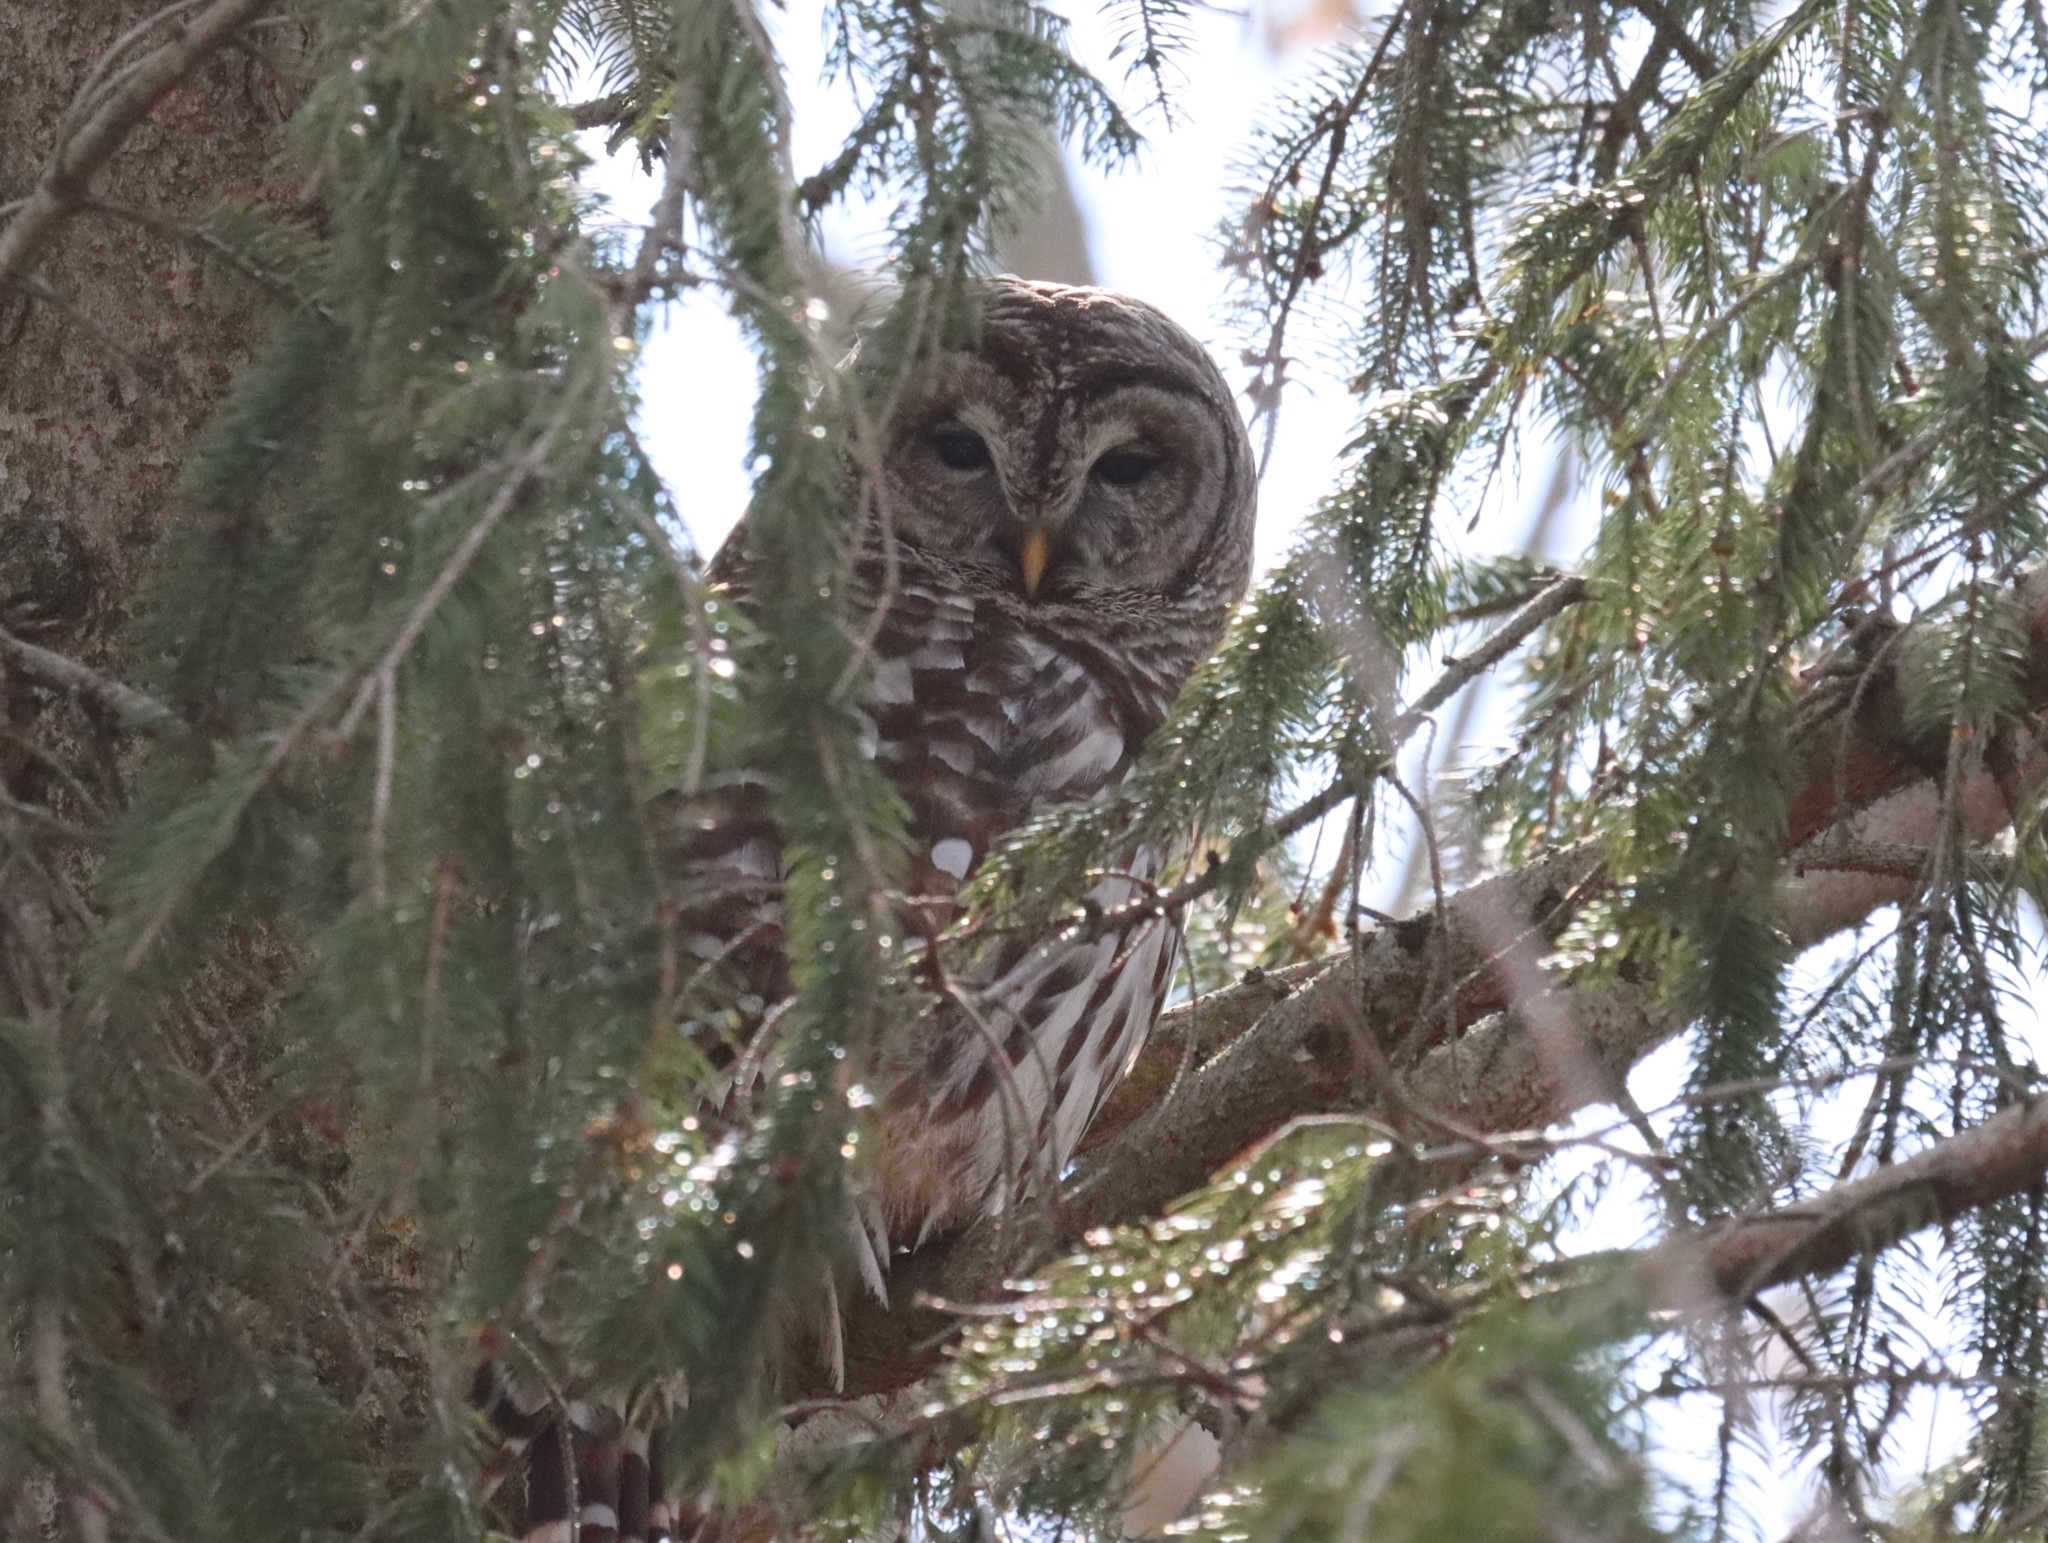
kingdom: Animalia
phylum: Chordata
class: Aves
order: Strigiformes
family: Strigidae
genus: Strix
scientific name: Strix varia
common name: Barred owl
